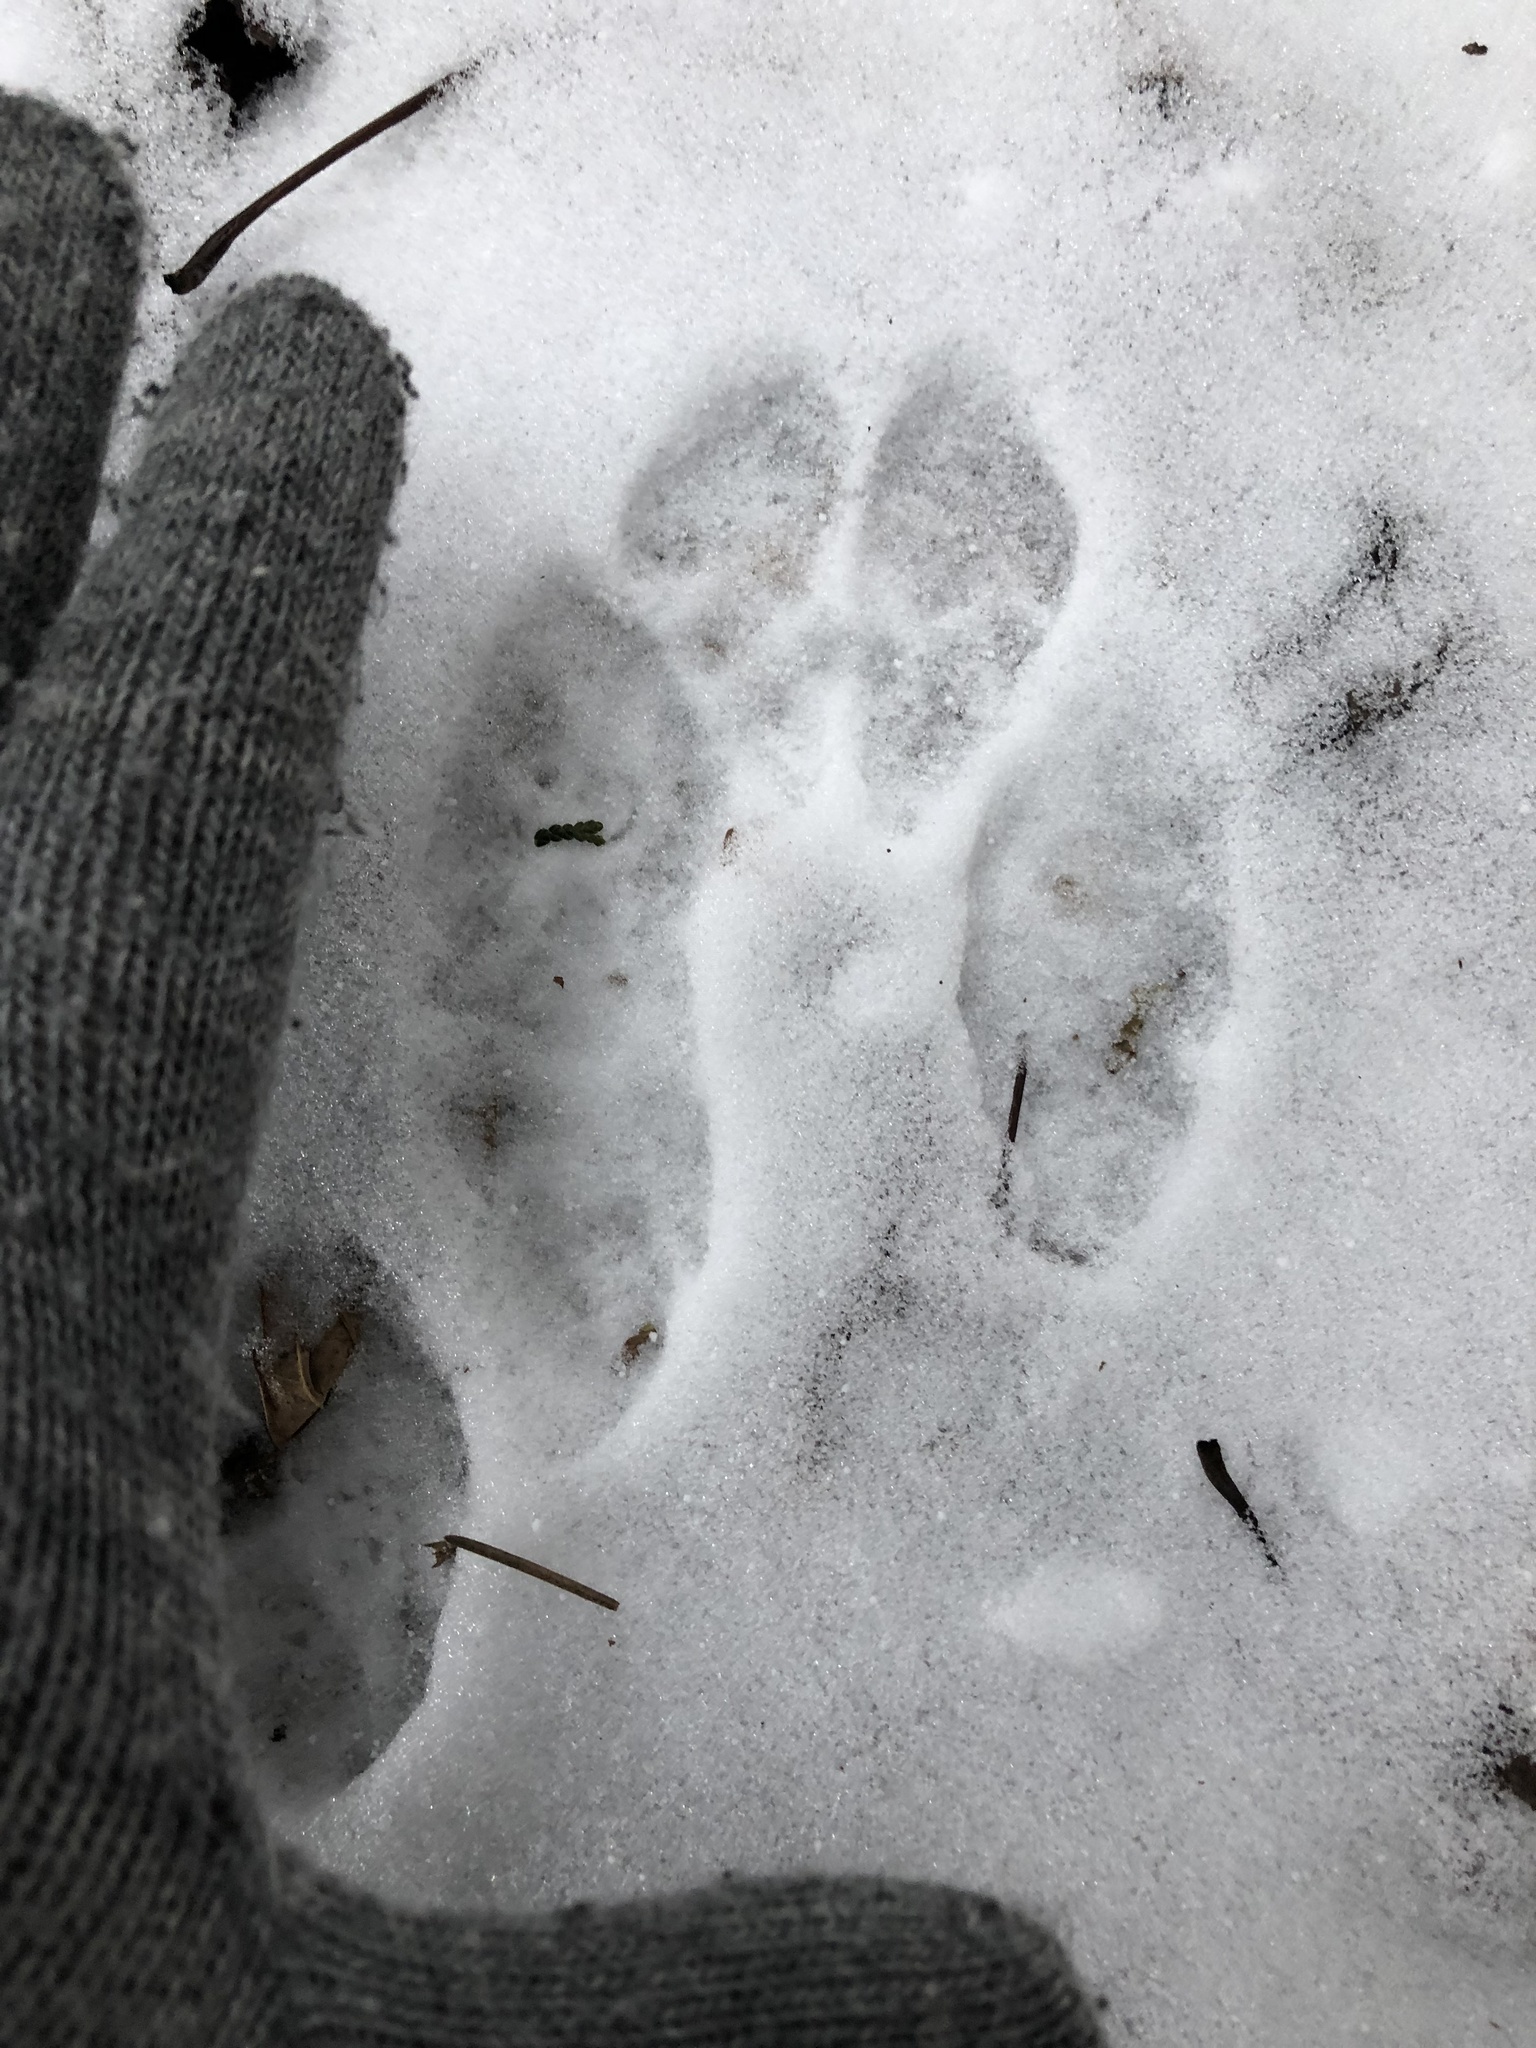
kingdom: Animalia
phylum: Chordata
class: Mammalia
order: Lagomorpha
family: Leporidae
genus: Sylvilagus
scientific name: Sylvilagus floridanus
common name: Eastern cottontail
